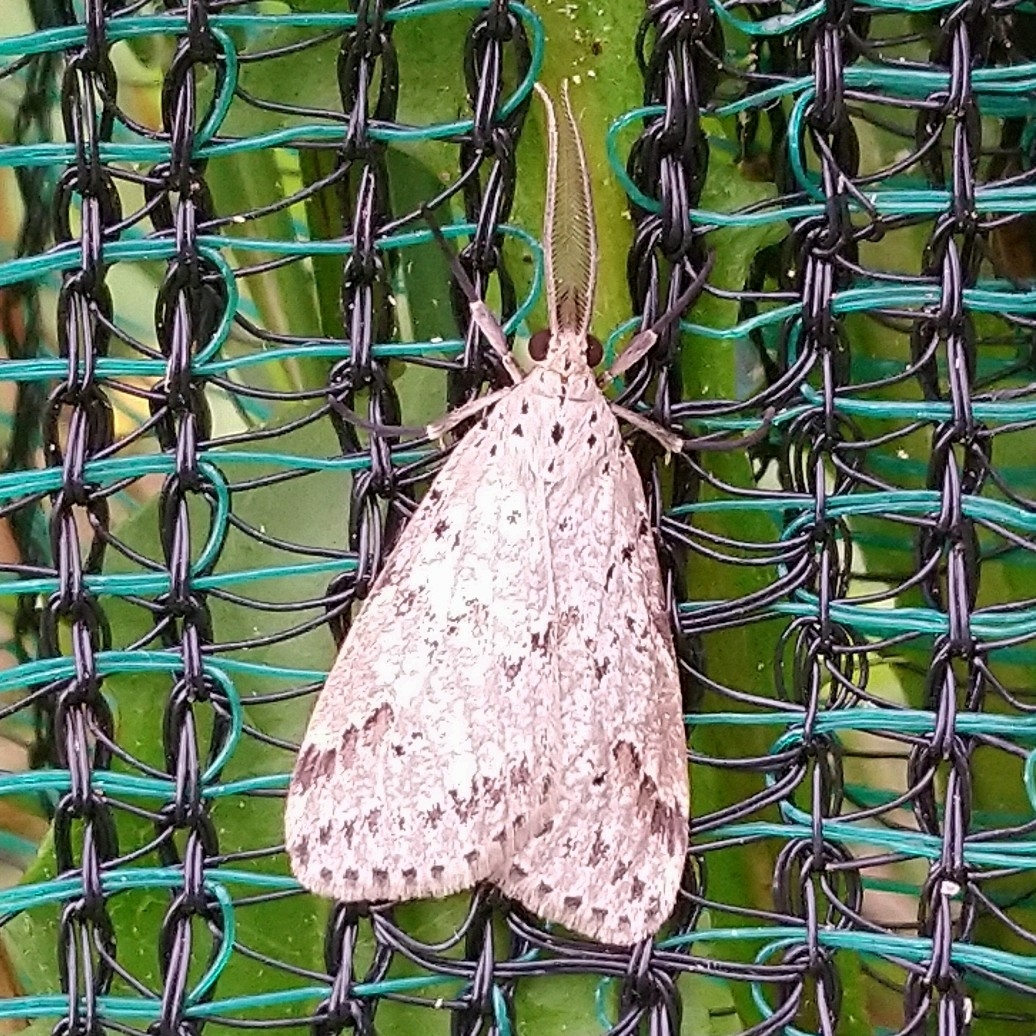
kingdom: Animalia
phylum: Arthropoda
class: Insecta
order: Lepidoptera
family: Erebidae
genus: Galtara
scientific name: Galtara rostrata
